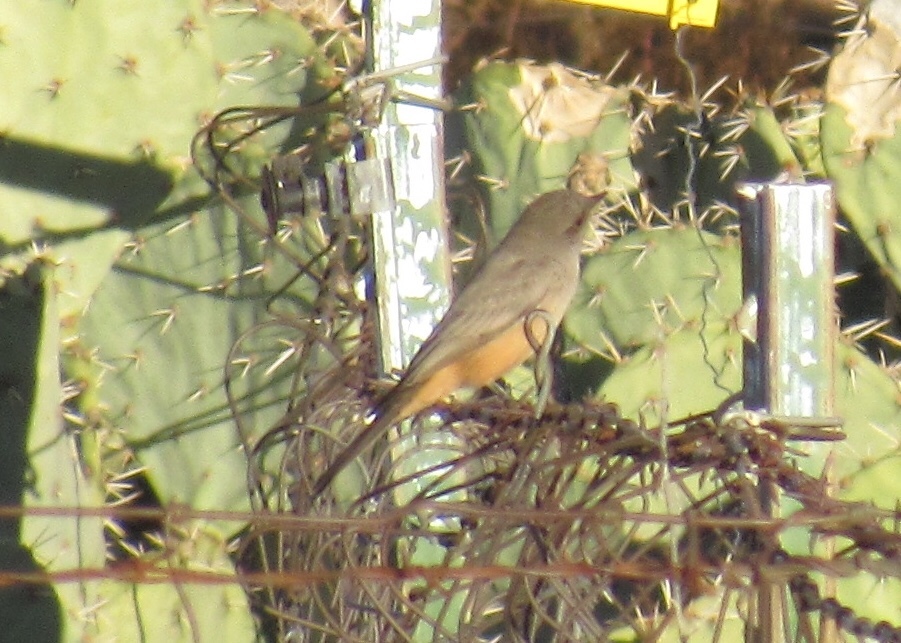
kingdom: Animalia
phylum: Chordata
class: Aves
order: Passeriformes
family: Tyrannidae
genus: Sayornis
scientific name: Sayornis saya
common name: Say's phoebe
